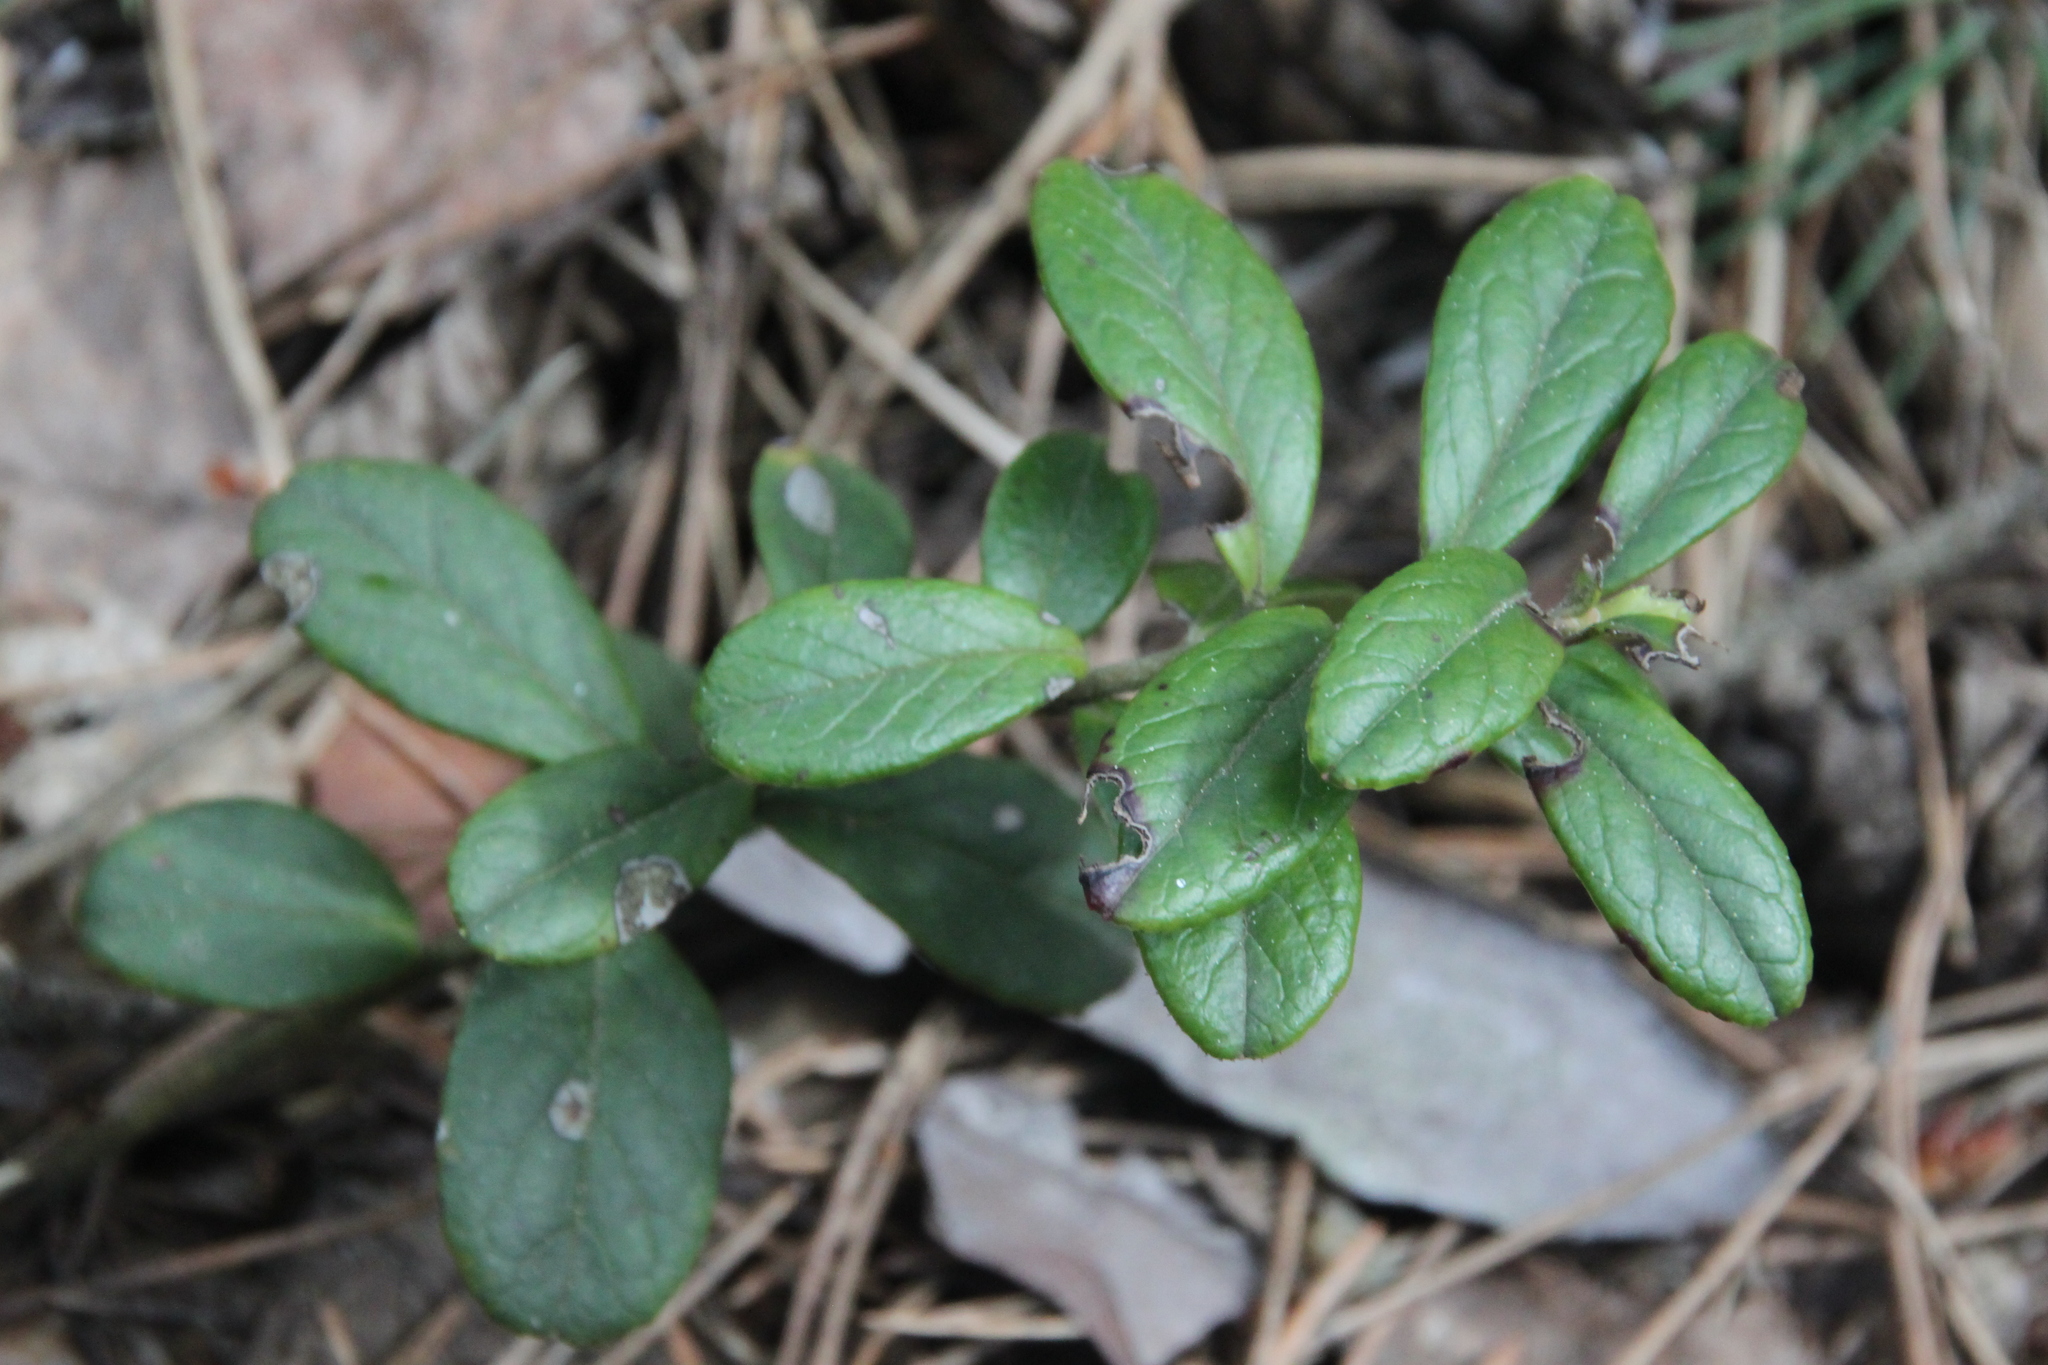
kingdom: Plantae
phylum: Tracheophyta
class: Magnoliopsida
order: Ericales
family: Ericaceae
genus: Vaccinium
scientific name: Vaccinium vitis-idaea
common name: Cowberry
